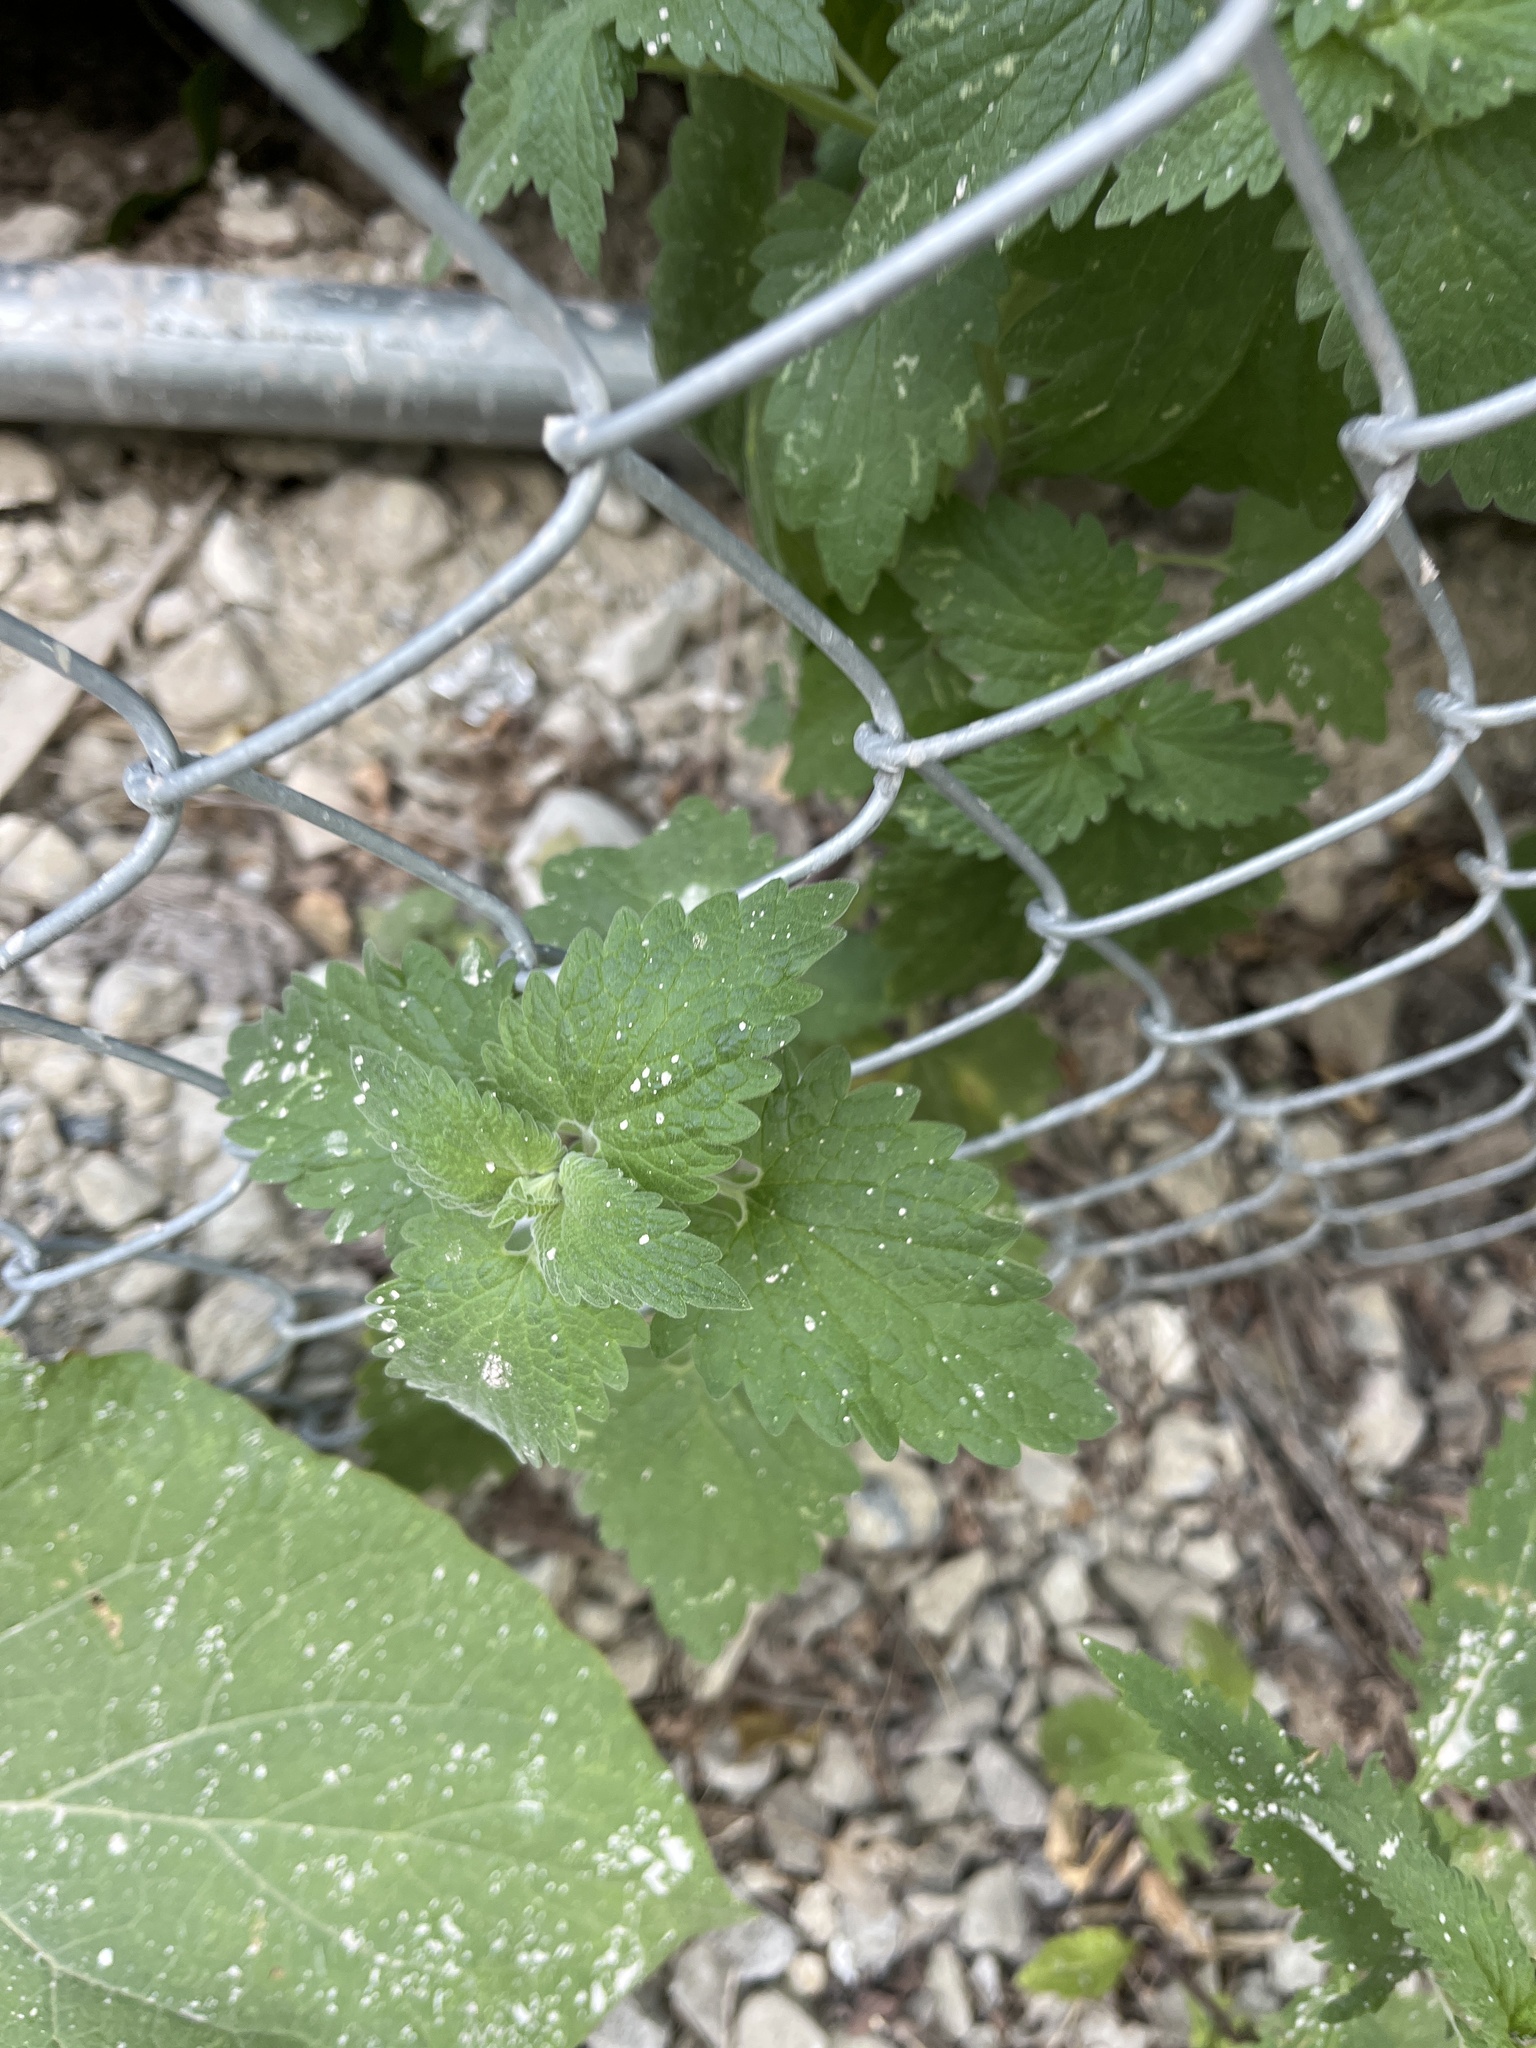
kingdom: Plantae
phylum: Tracheophyta
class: Magnoliopsida
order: Lamiales
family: Lamiaceae
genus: Nepeta
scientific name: Nepeta cataria
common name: Catnip
